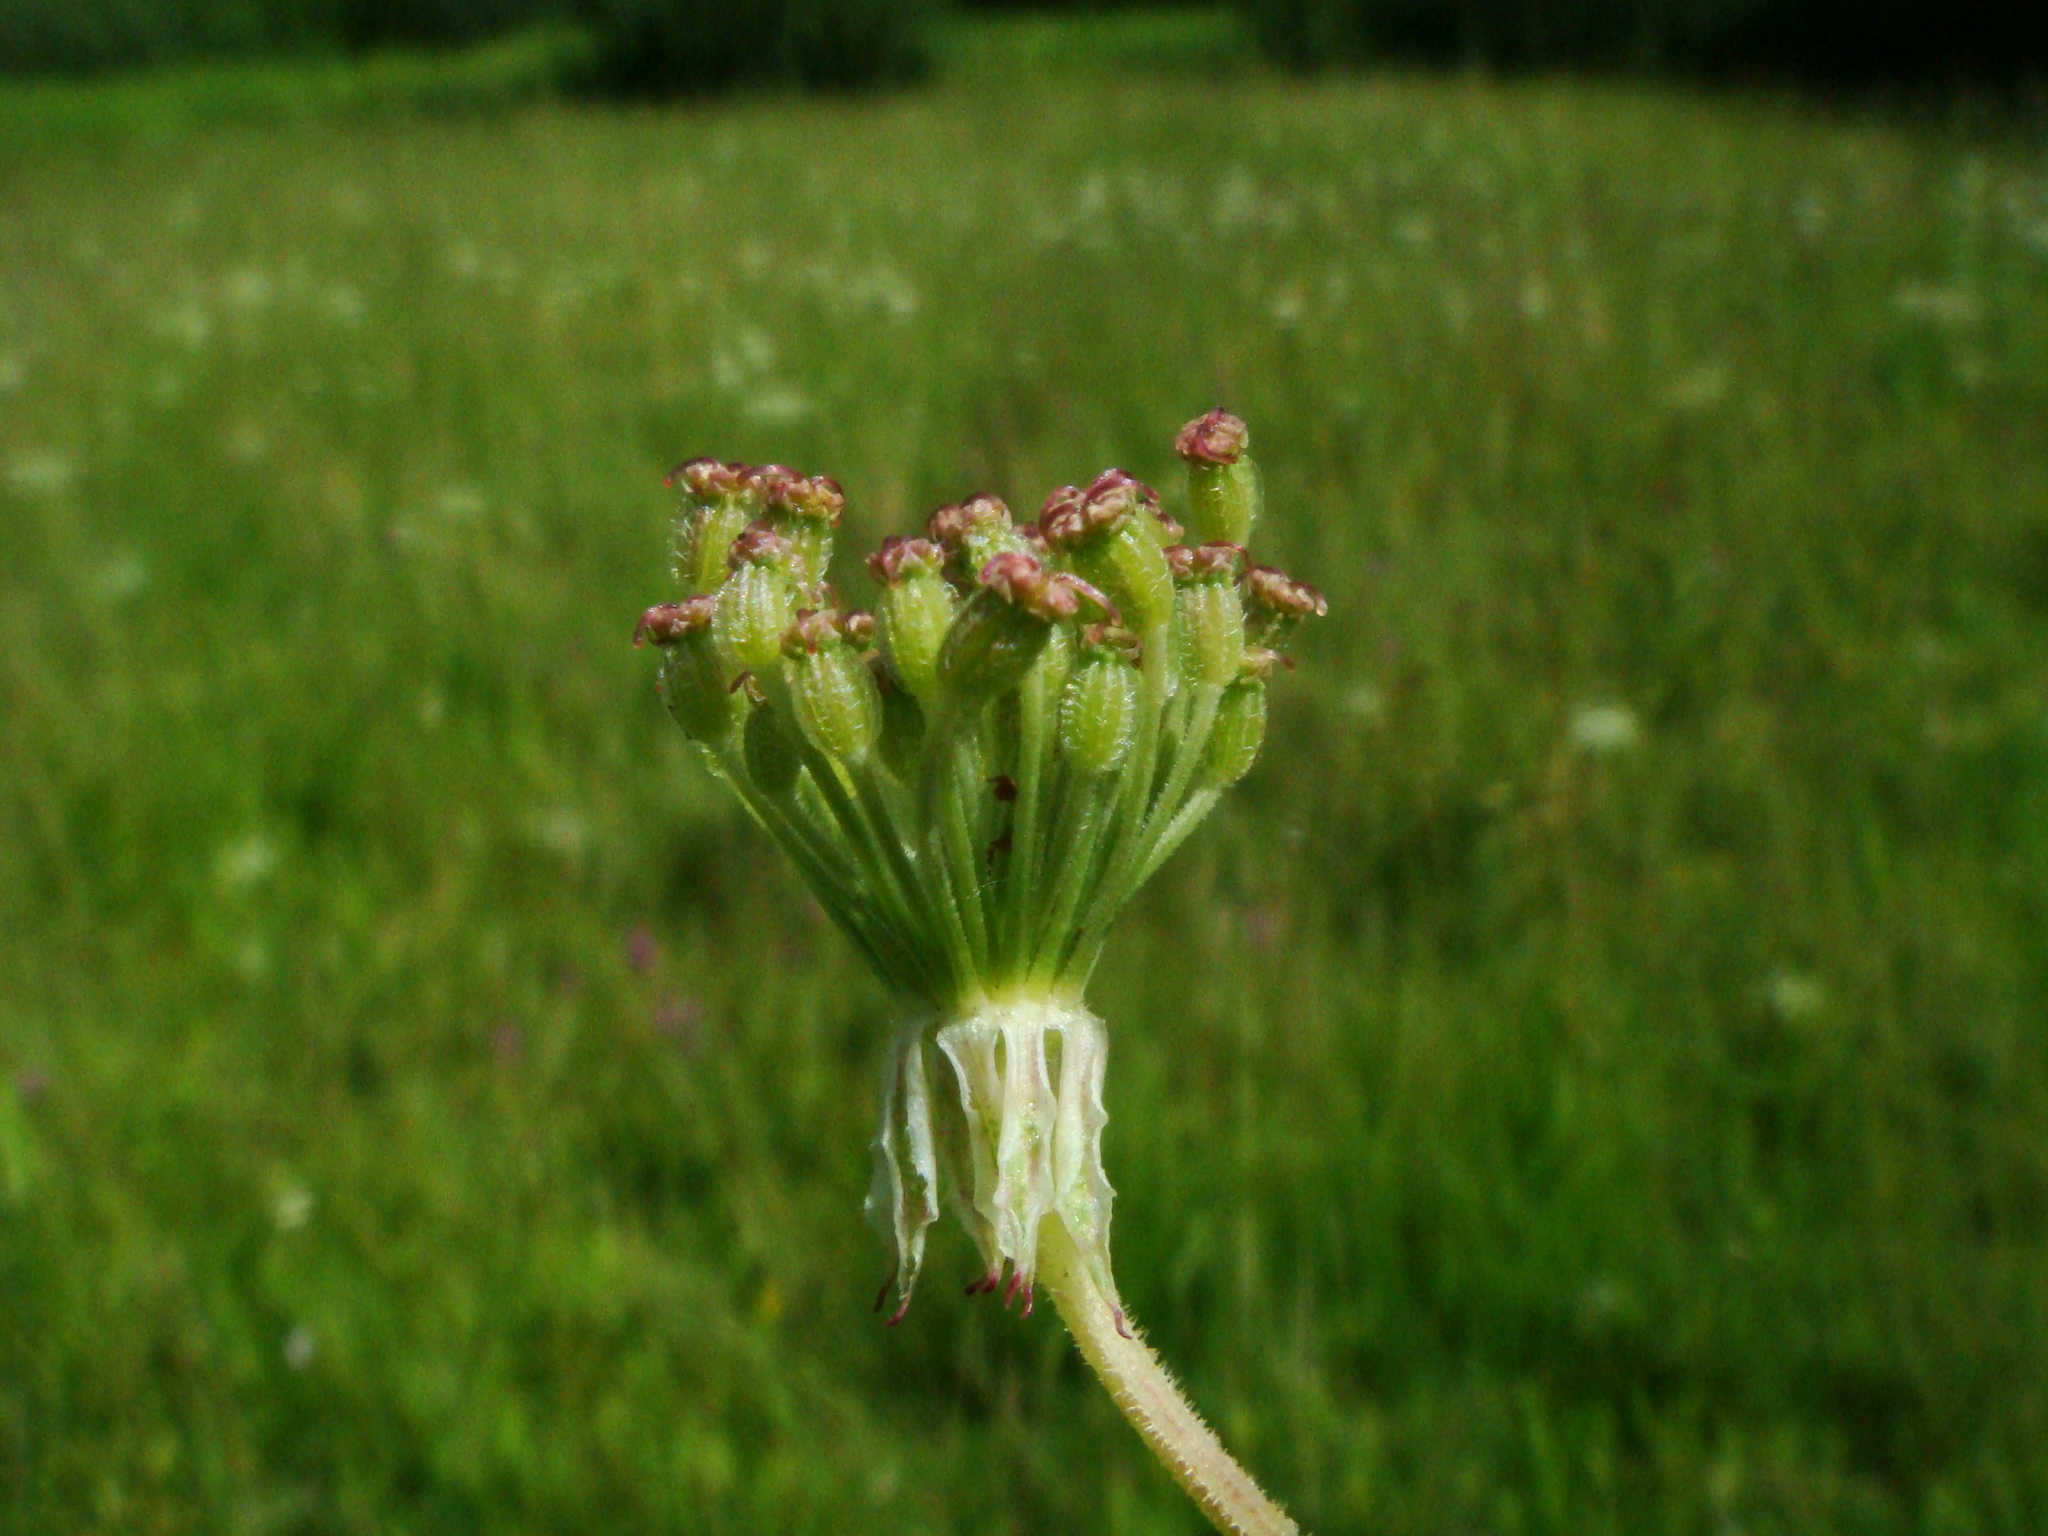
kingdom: Plantae
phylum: Tracheophyta
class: Magnoliopsida
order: Apiales
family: Apiaceae
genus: Silphiodaucus
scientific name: Silphiodaucus prutenicus
